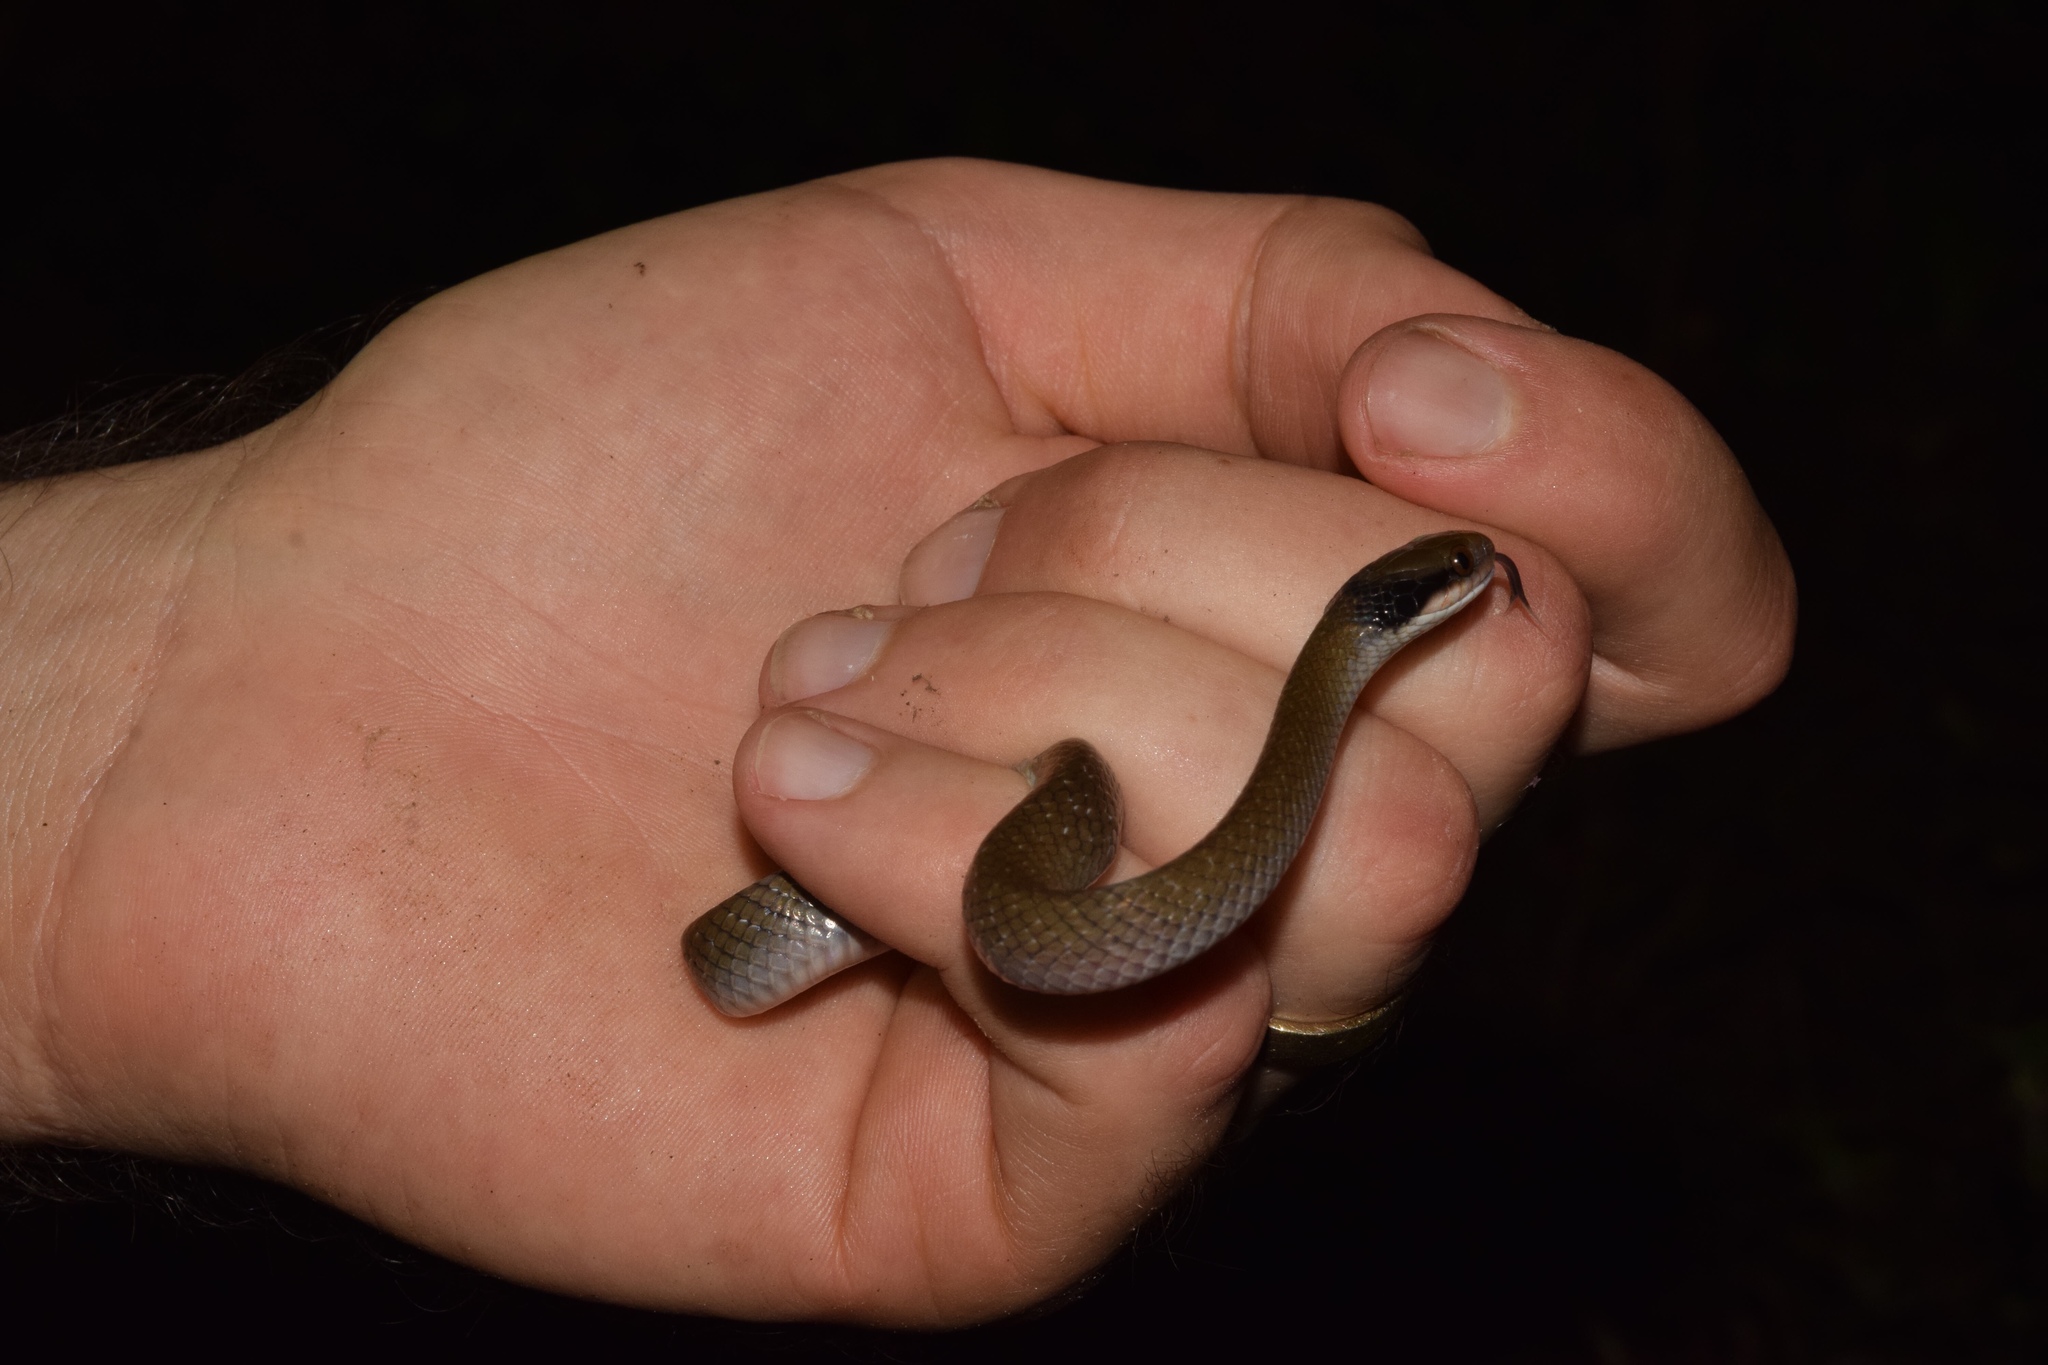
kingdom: Animalia
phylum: Chordata
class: Squamata
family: Colubridae
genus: Crotaphopeltis
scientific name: Crotaphopeltis hotamboeia
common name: Red-lipped snake
